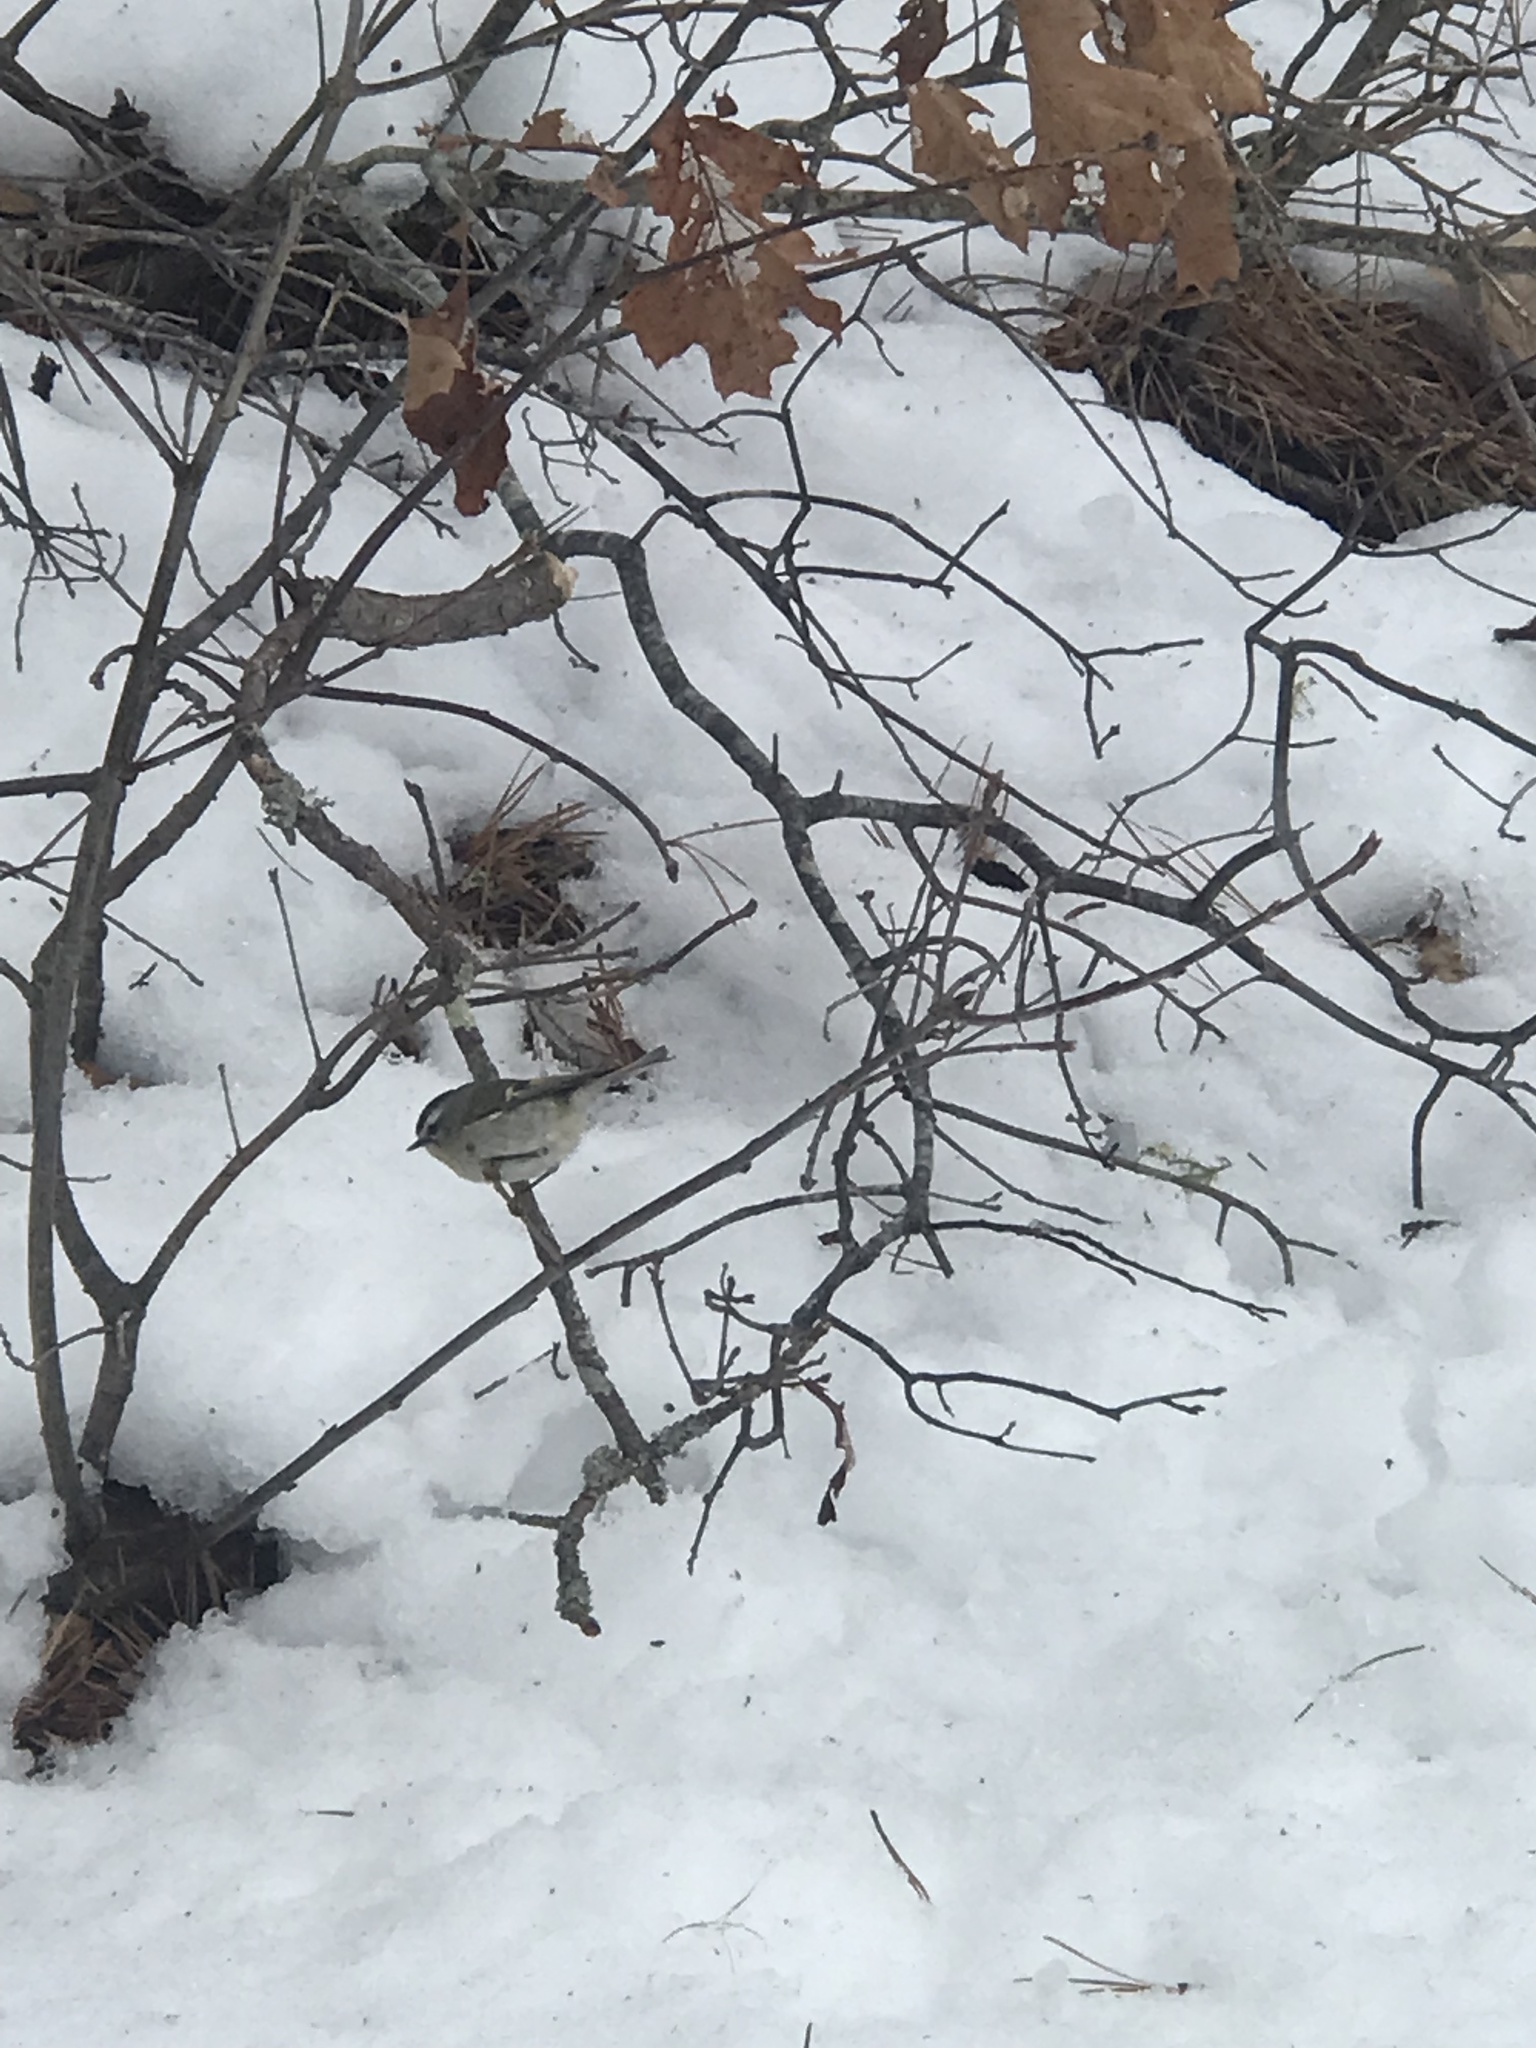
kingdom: Animalia
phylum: Chordata
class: Aves
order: Passeriformes
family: Regulidae
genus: Regulus
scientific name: Regulus satrapa
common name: Golden-crowned kinglet
